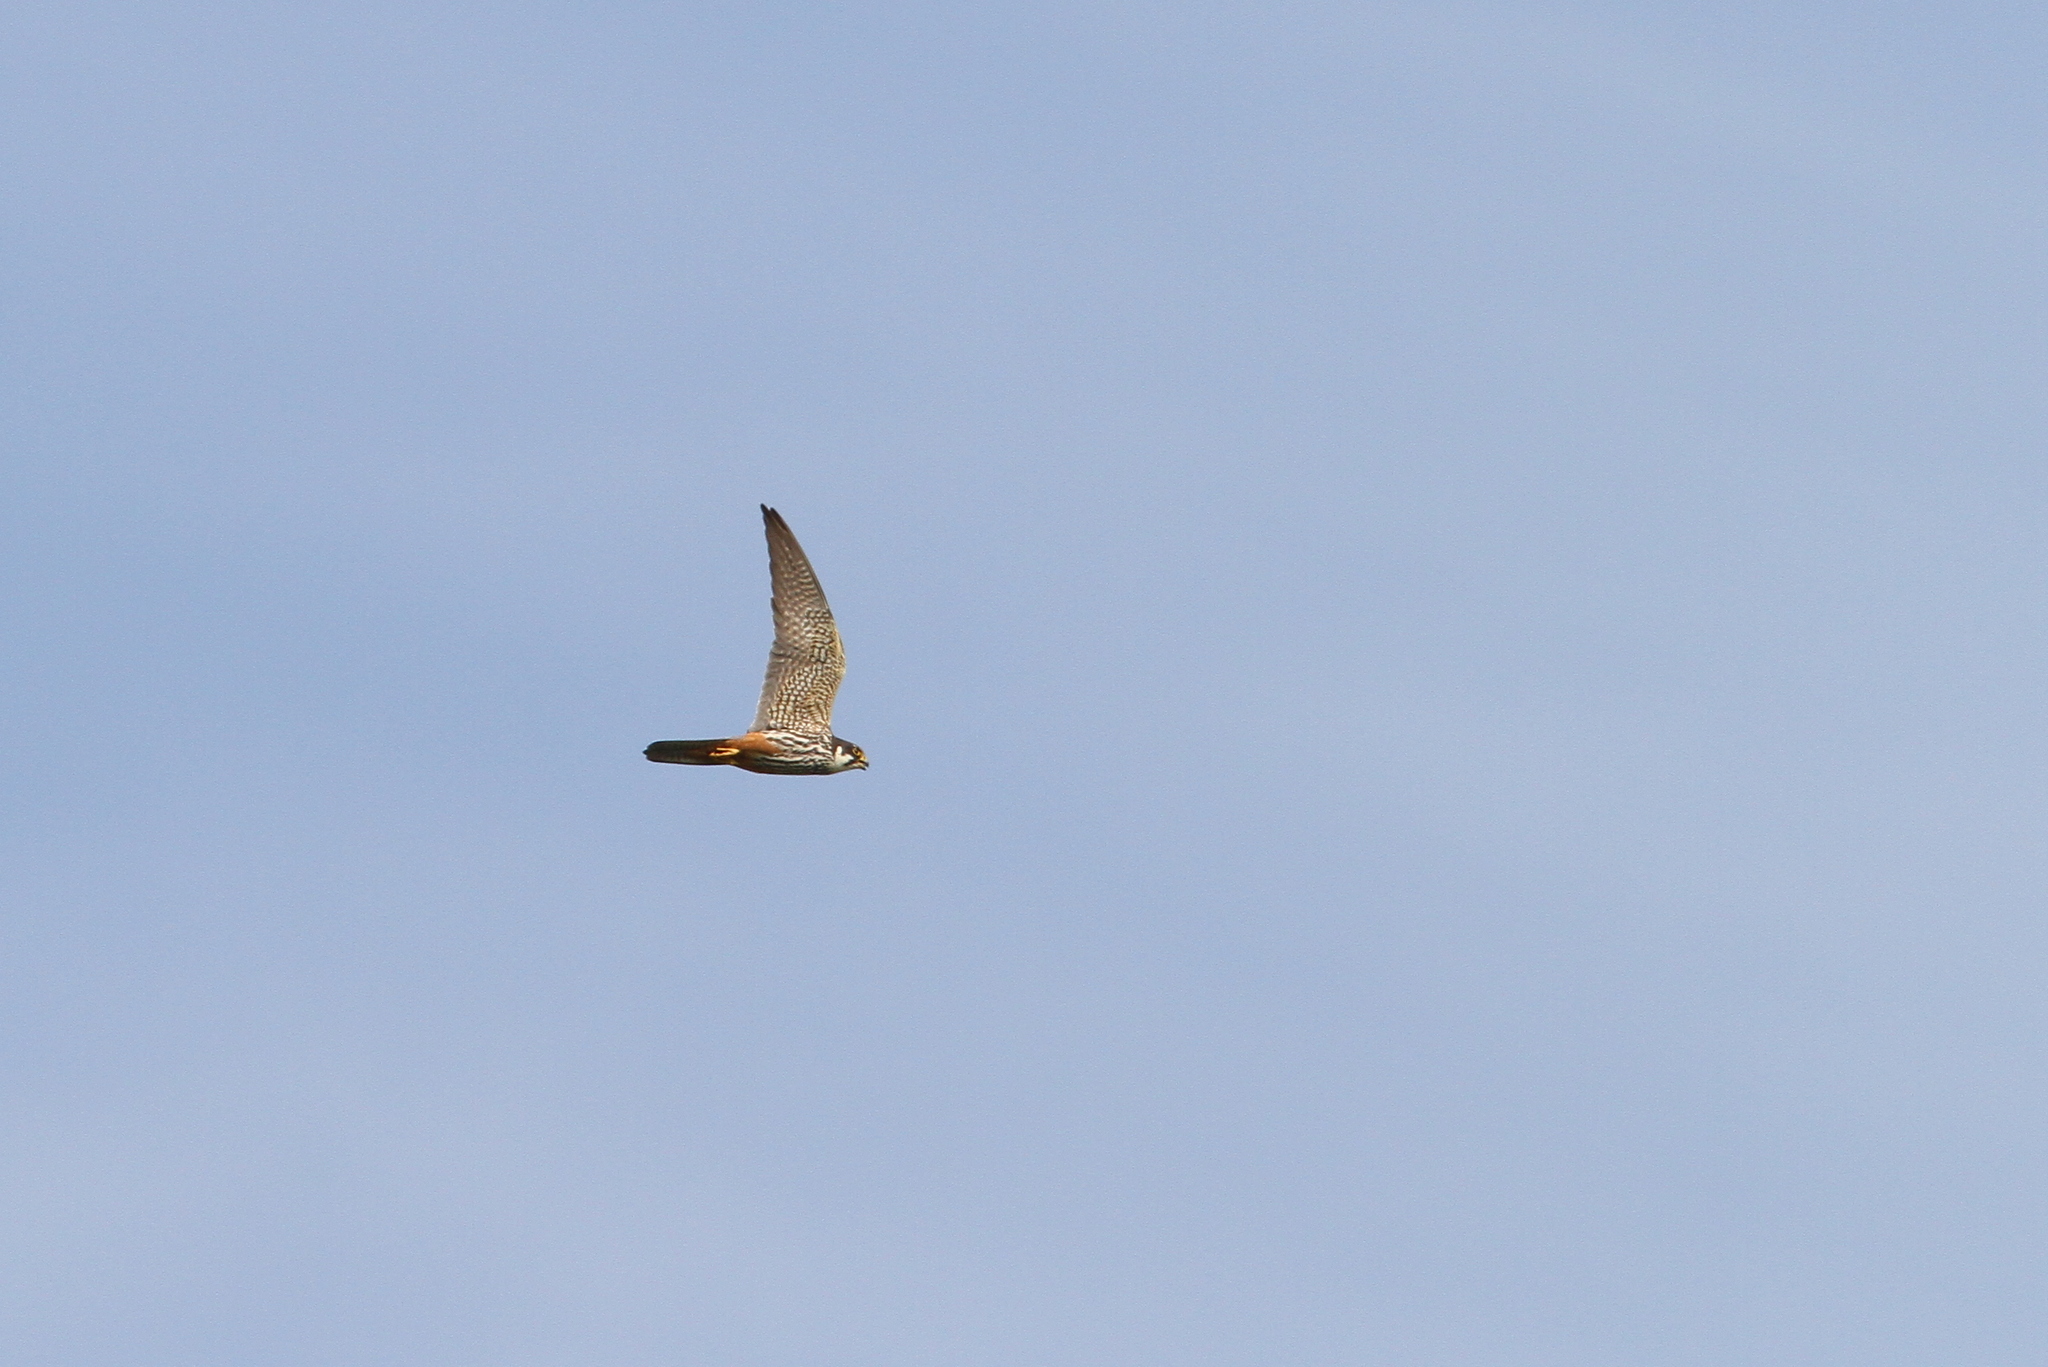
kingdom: Animalia
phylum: Chordata
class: Aves
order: Falconiformes
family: Falconidae
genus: Falco
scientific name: Falco subbuteo
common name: Eurasian hobby
